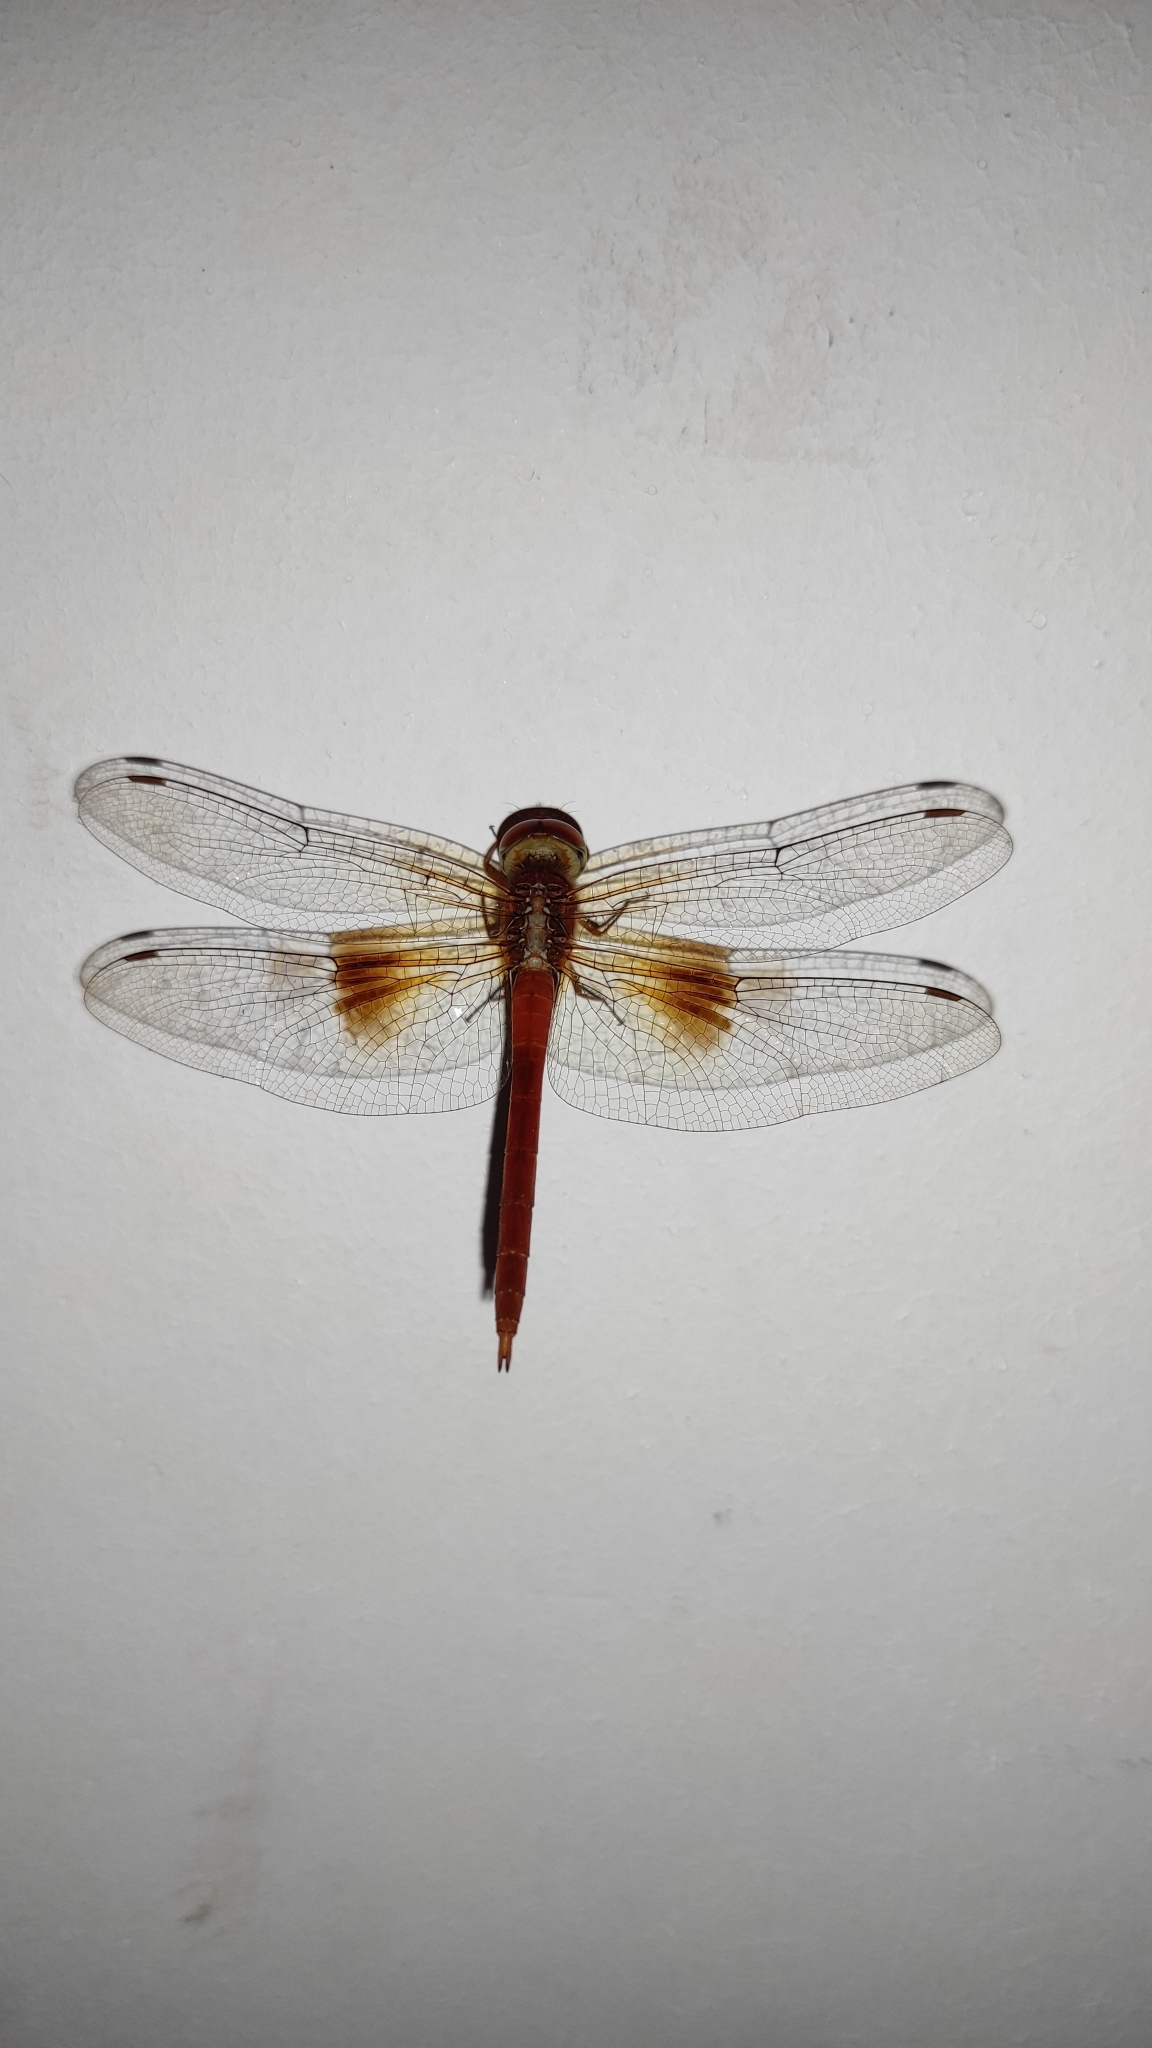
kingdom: Animalia
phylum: Arthropoda
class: Insecta
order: Odonata
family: Libellulidae
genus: Tholymis
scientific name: Tholymis tillarga
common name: Coral-tailed cloud wing
